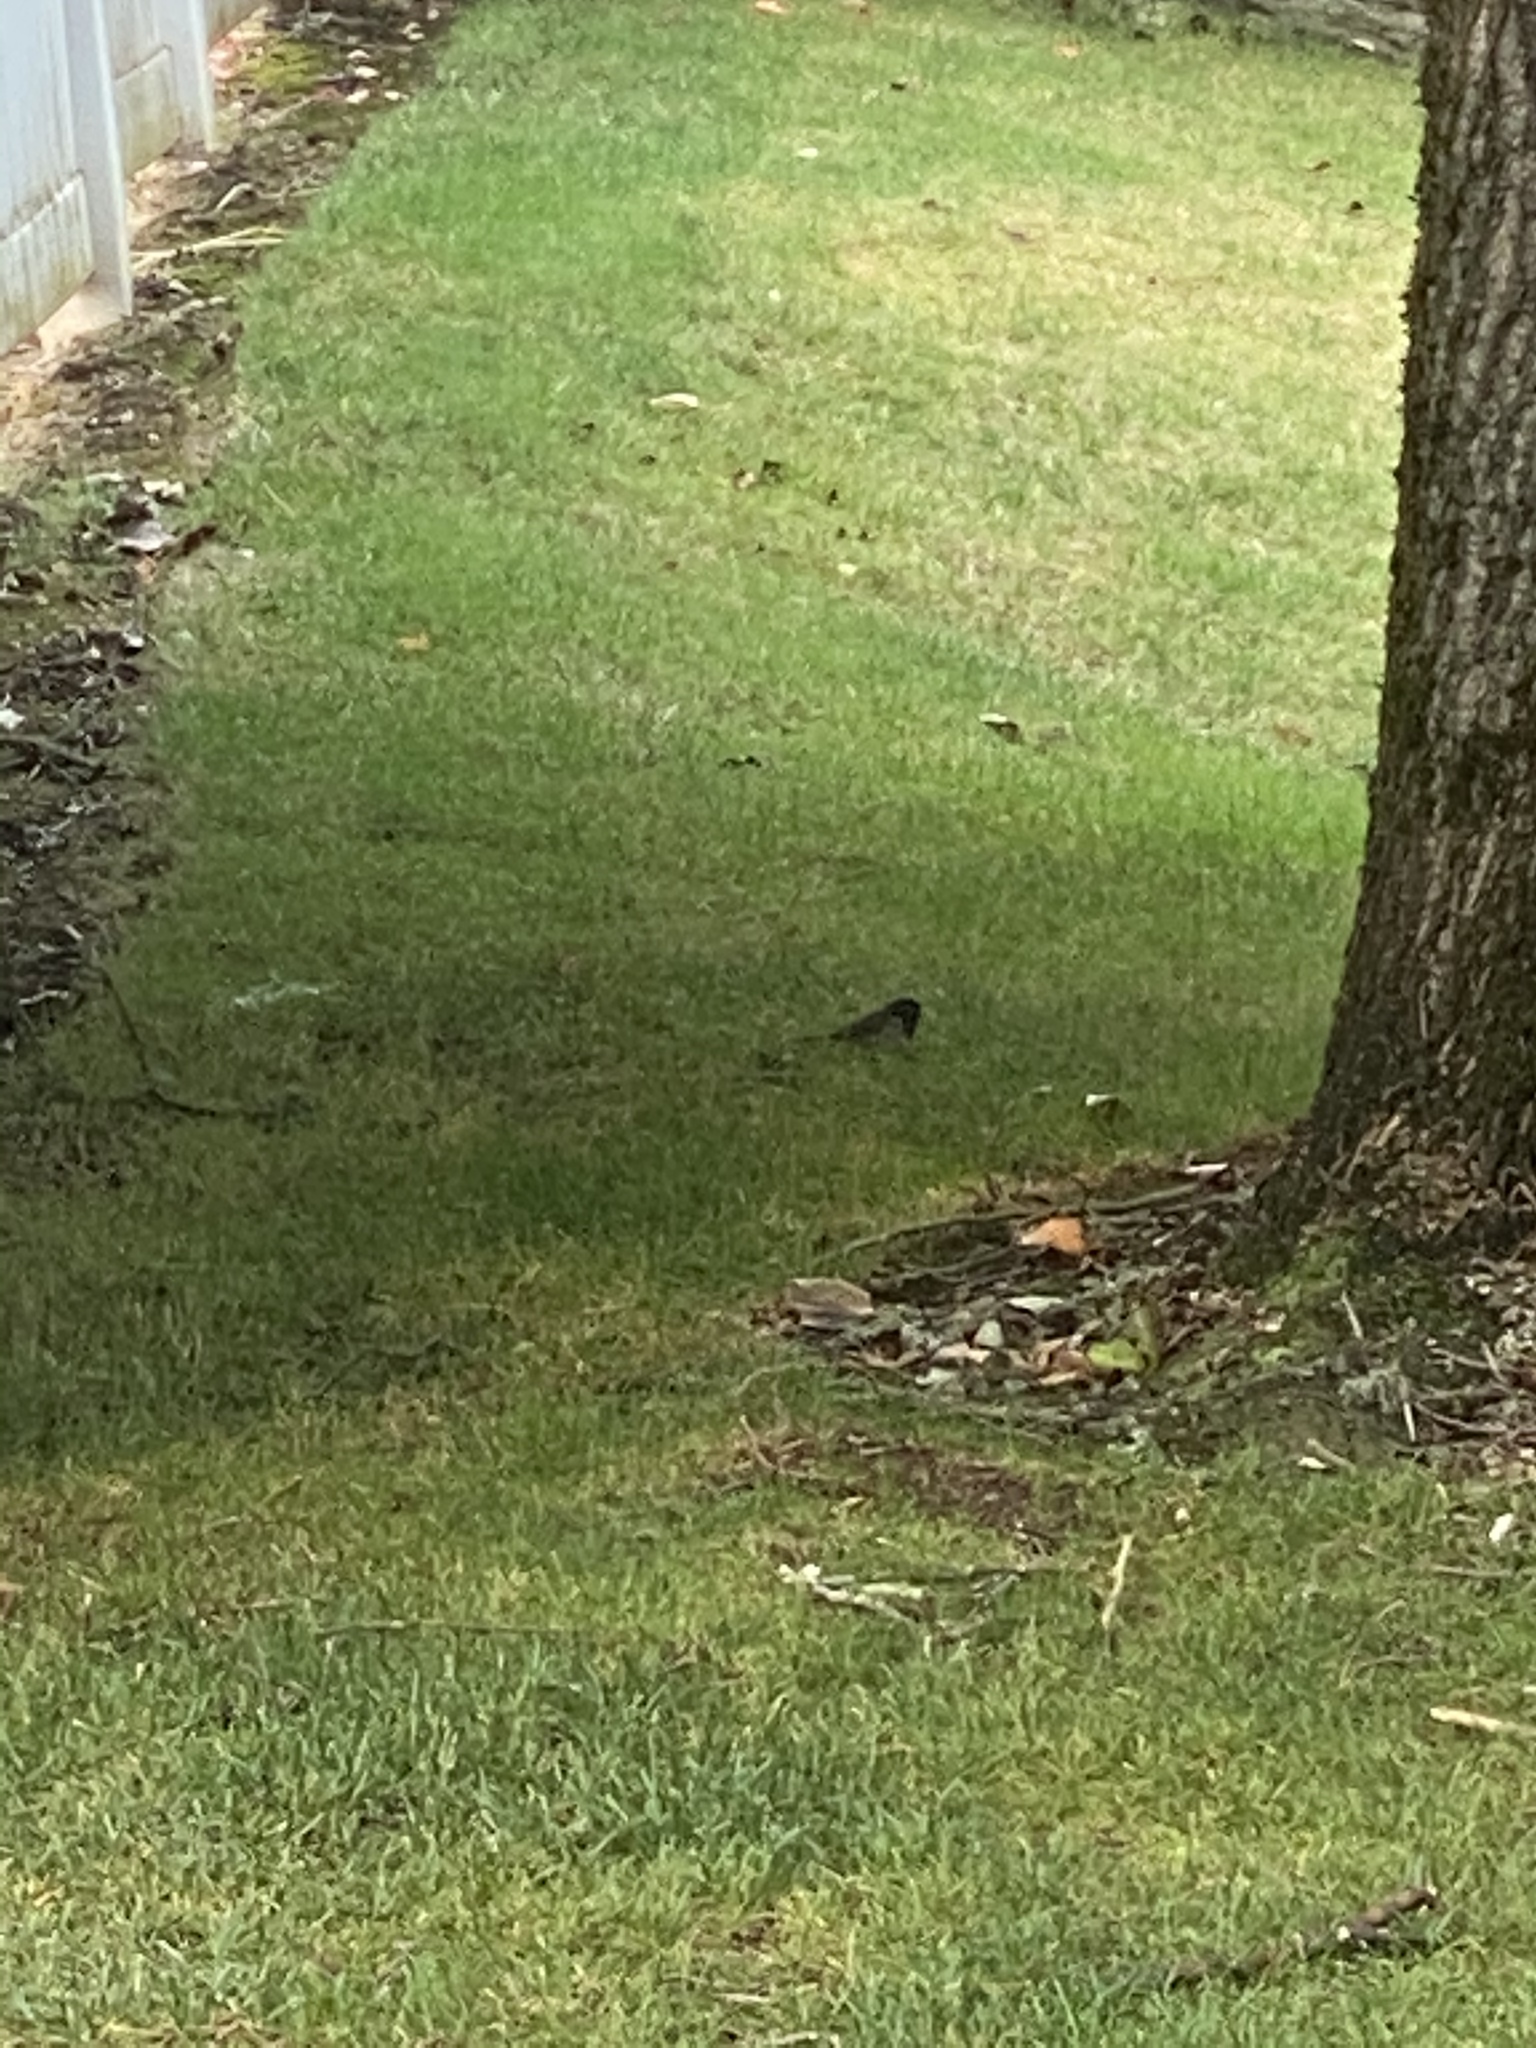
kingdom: Animalia
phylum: Chordata
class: Aves
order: Passeriformes
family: Passerellidae
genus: Junco
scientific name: Junco hyemalis
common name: Dark-eyed junco
